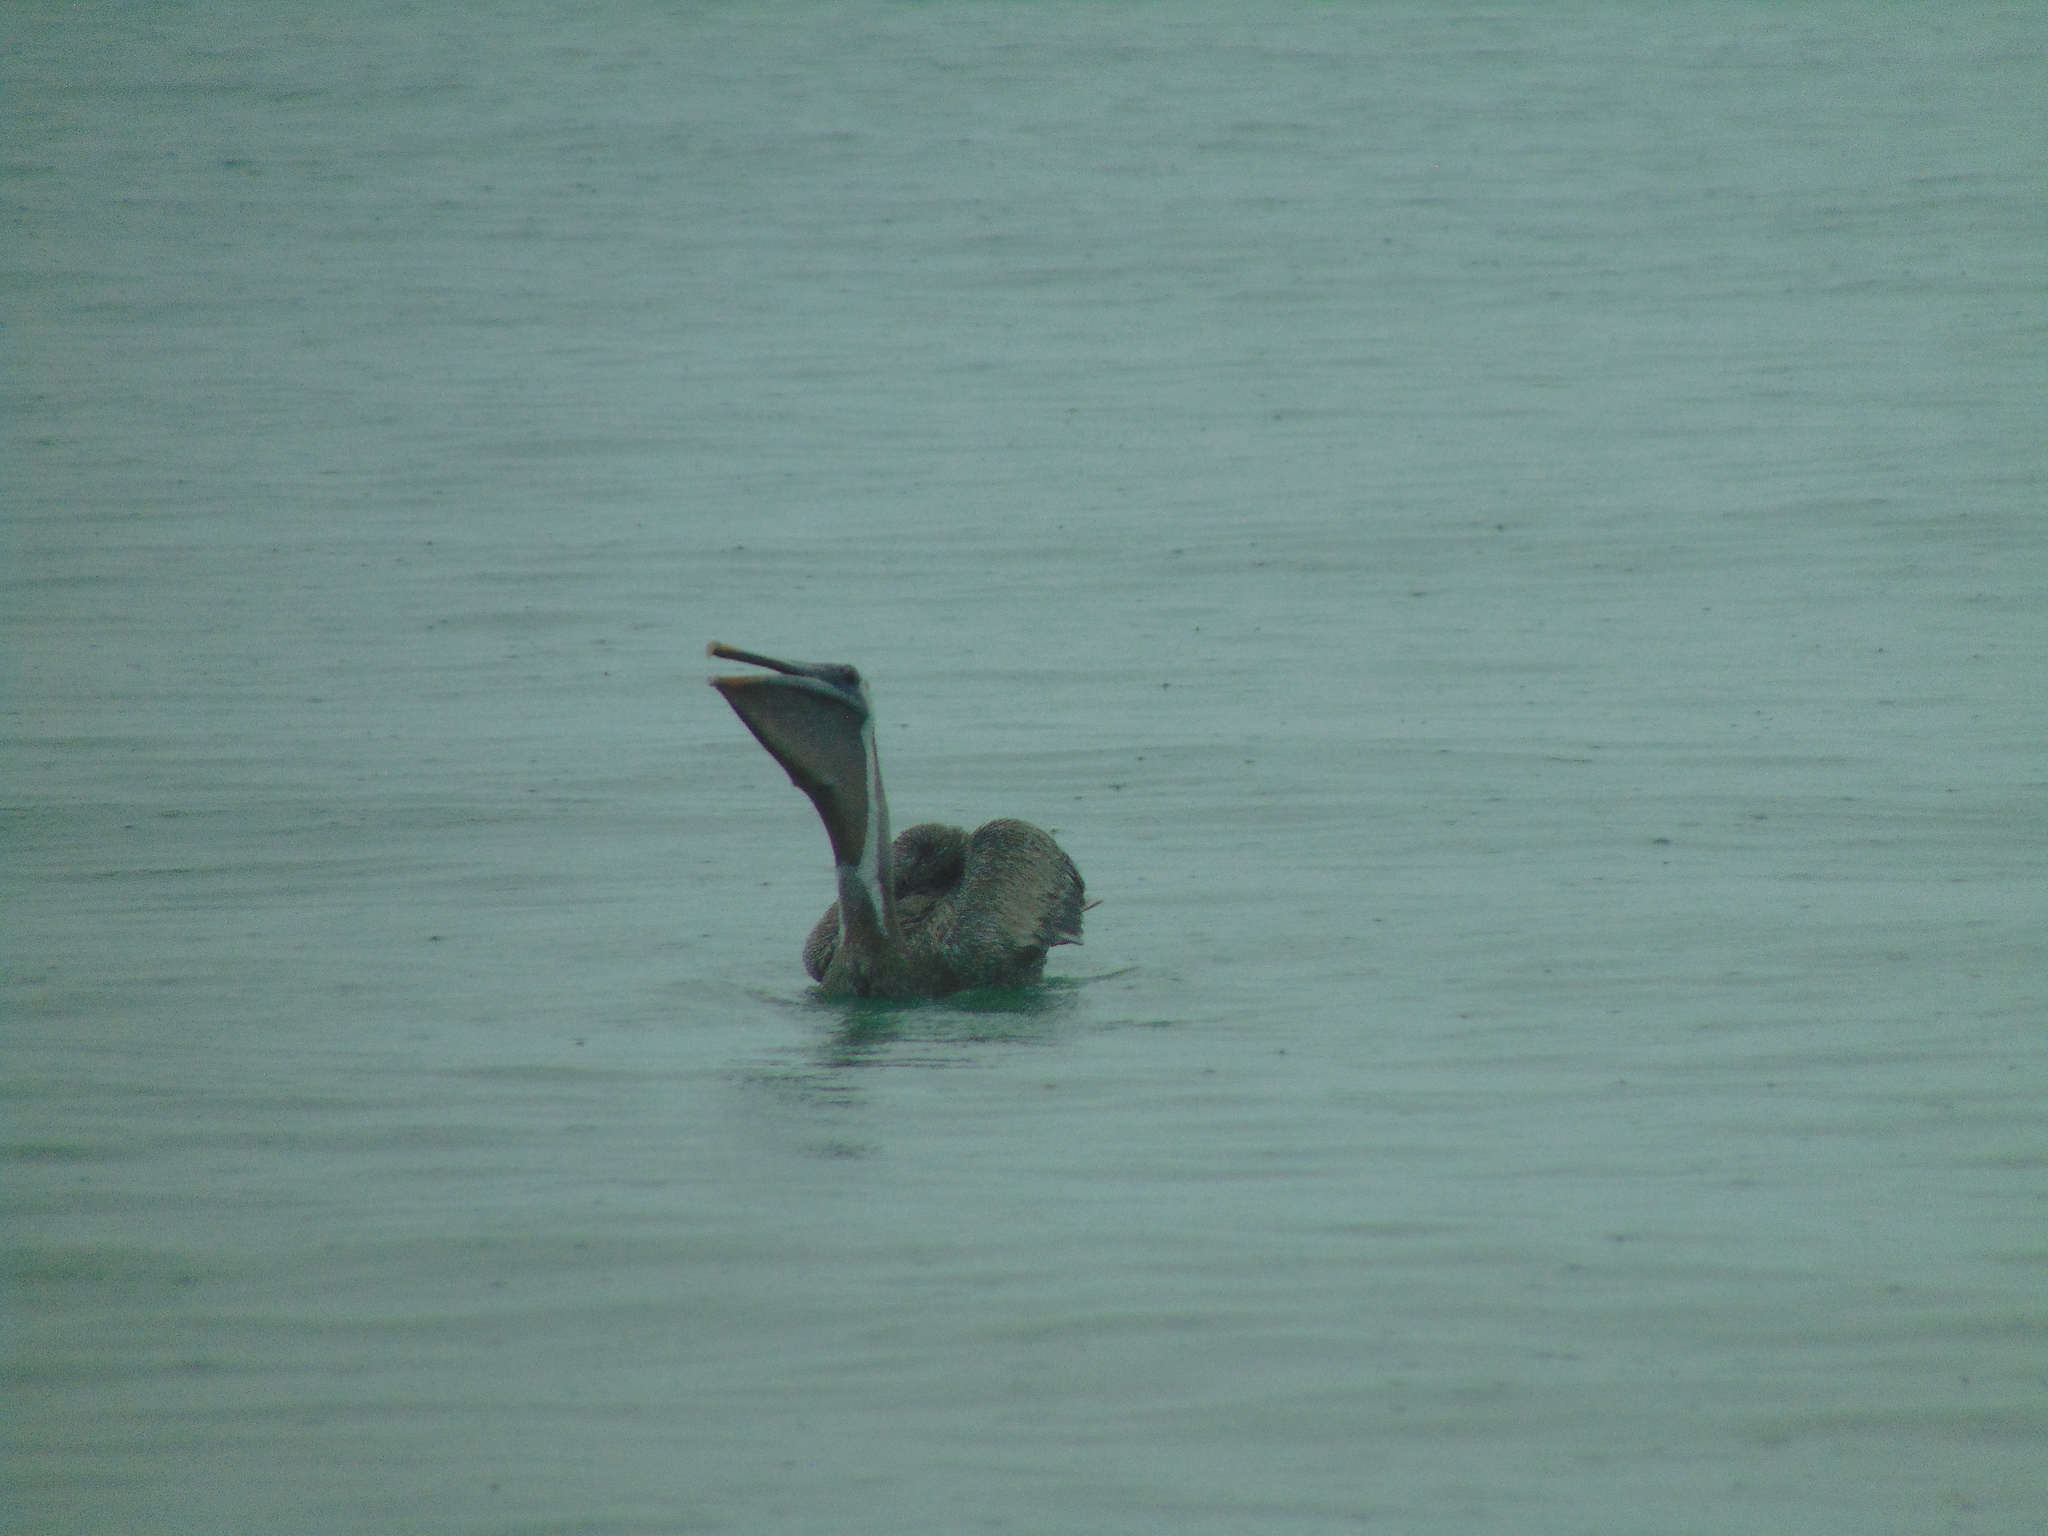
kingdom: Animalia
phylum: Chordata
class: Aves
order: Pelecaniformes
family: Pelecanidae
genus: Pelecanus
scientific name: Pelecanus occidentalis
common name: Brown pelican
